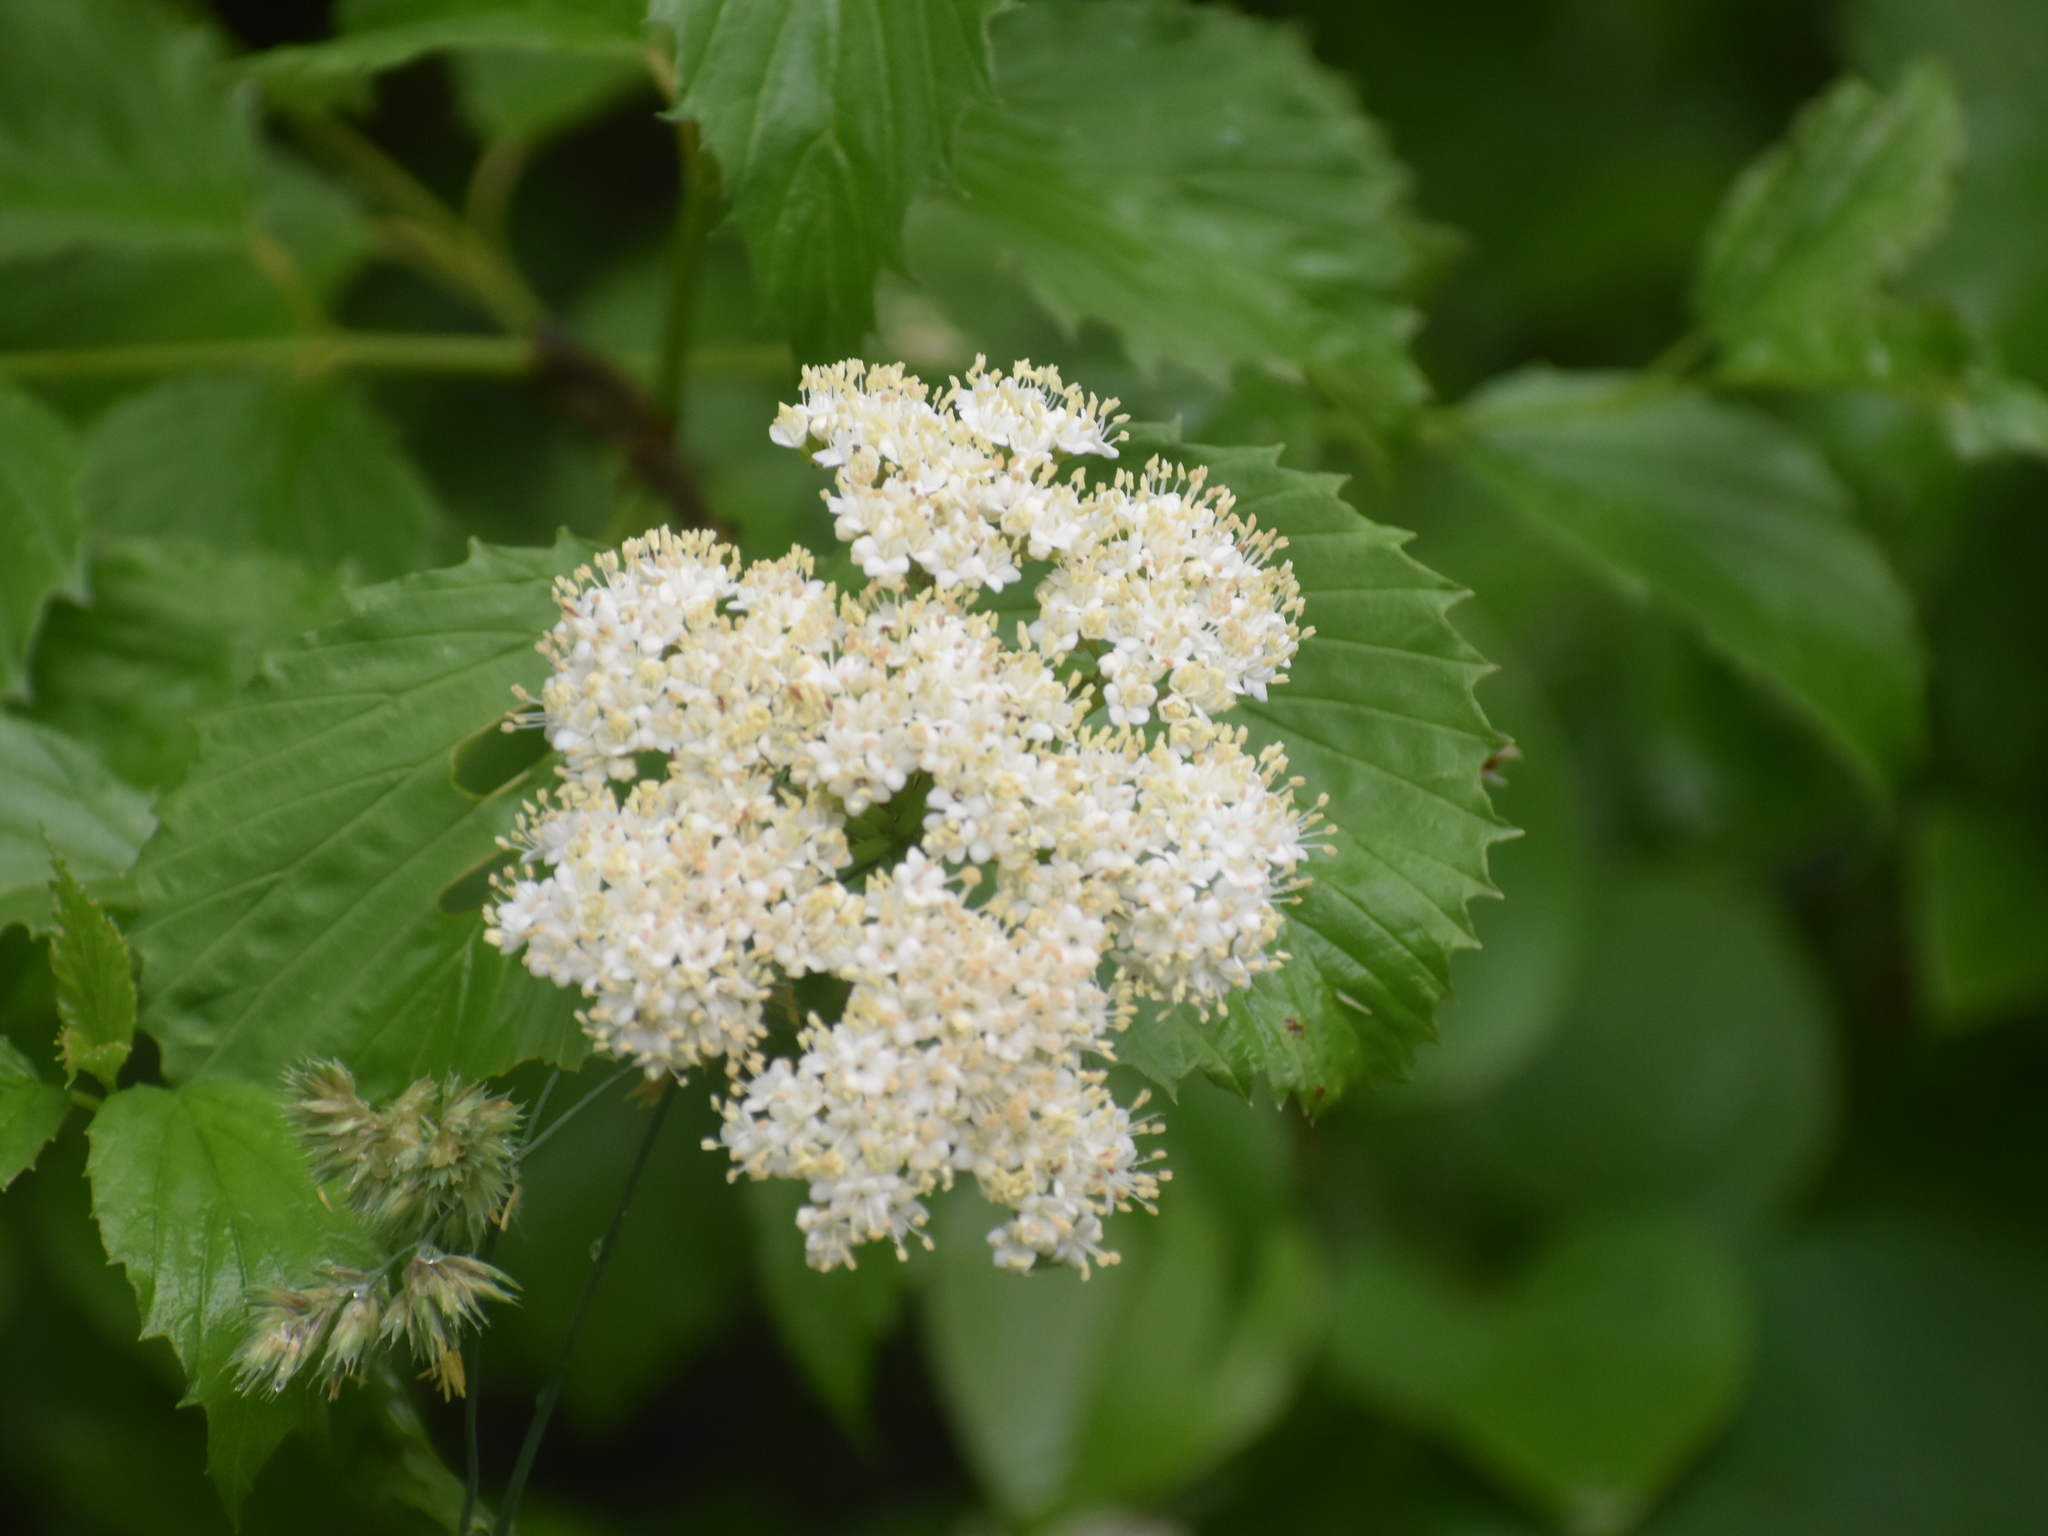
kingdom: Plantae
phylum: Tracheophyta
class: Magnoliopsida
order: Dipsacales
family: Viburnaceae
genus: Viburnum
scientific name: Viburnum dentatum
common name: Arrow-wood
